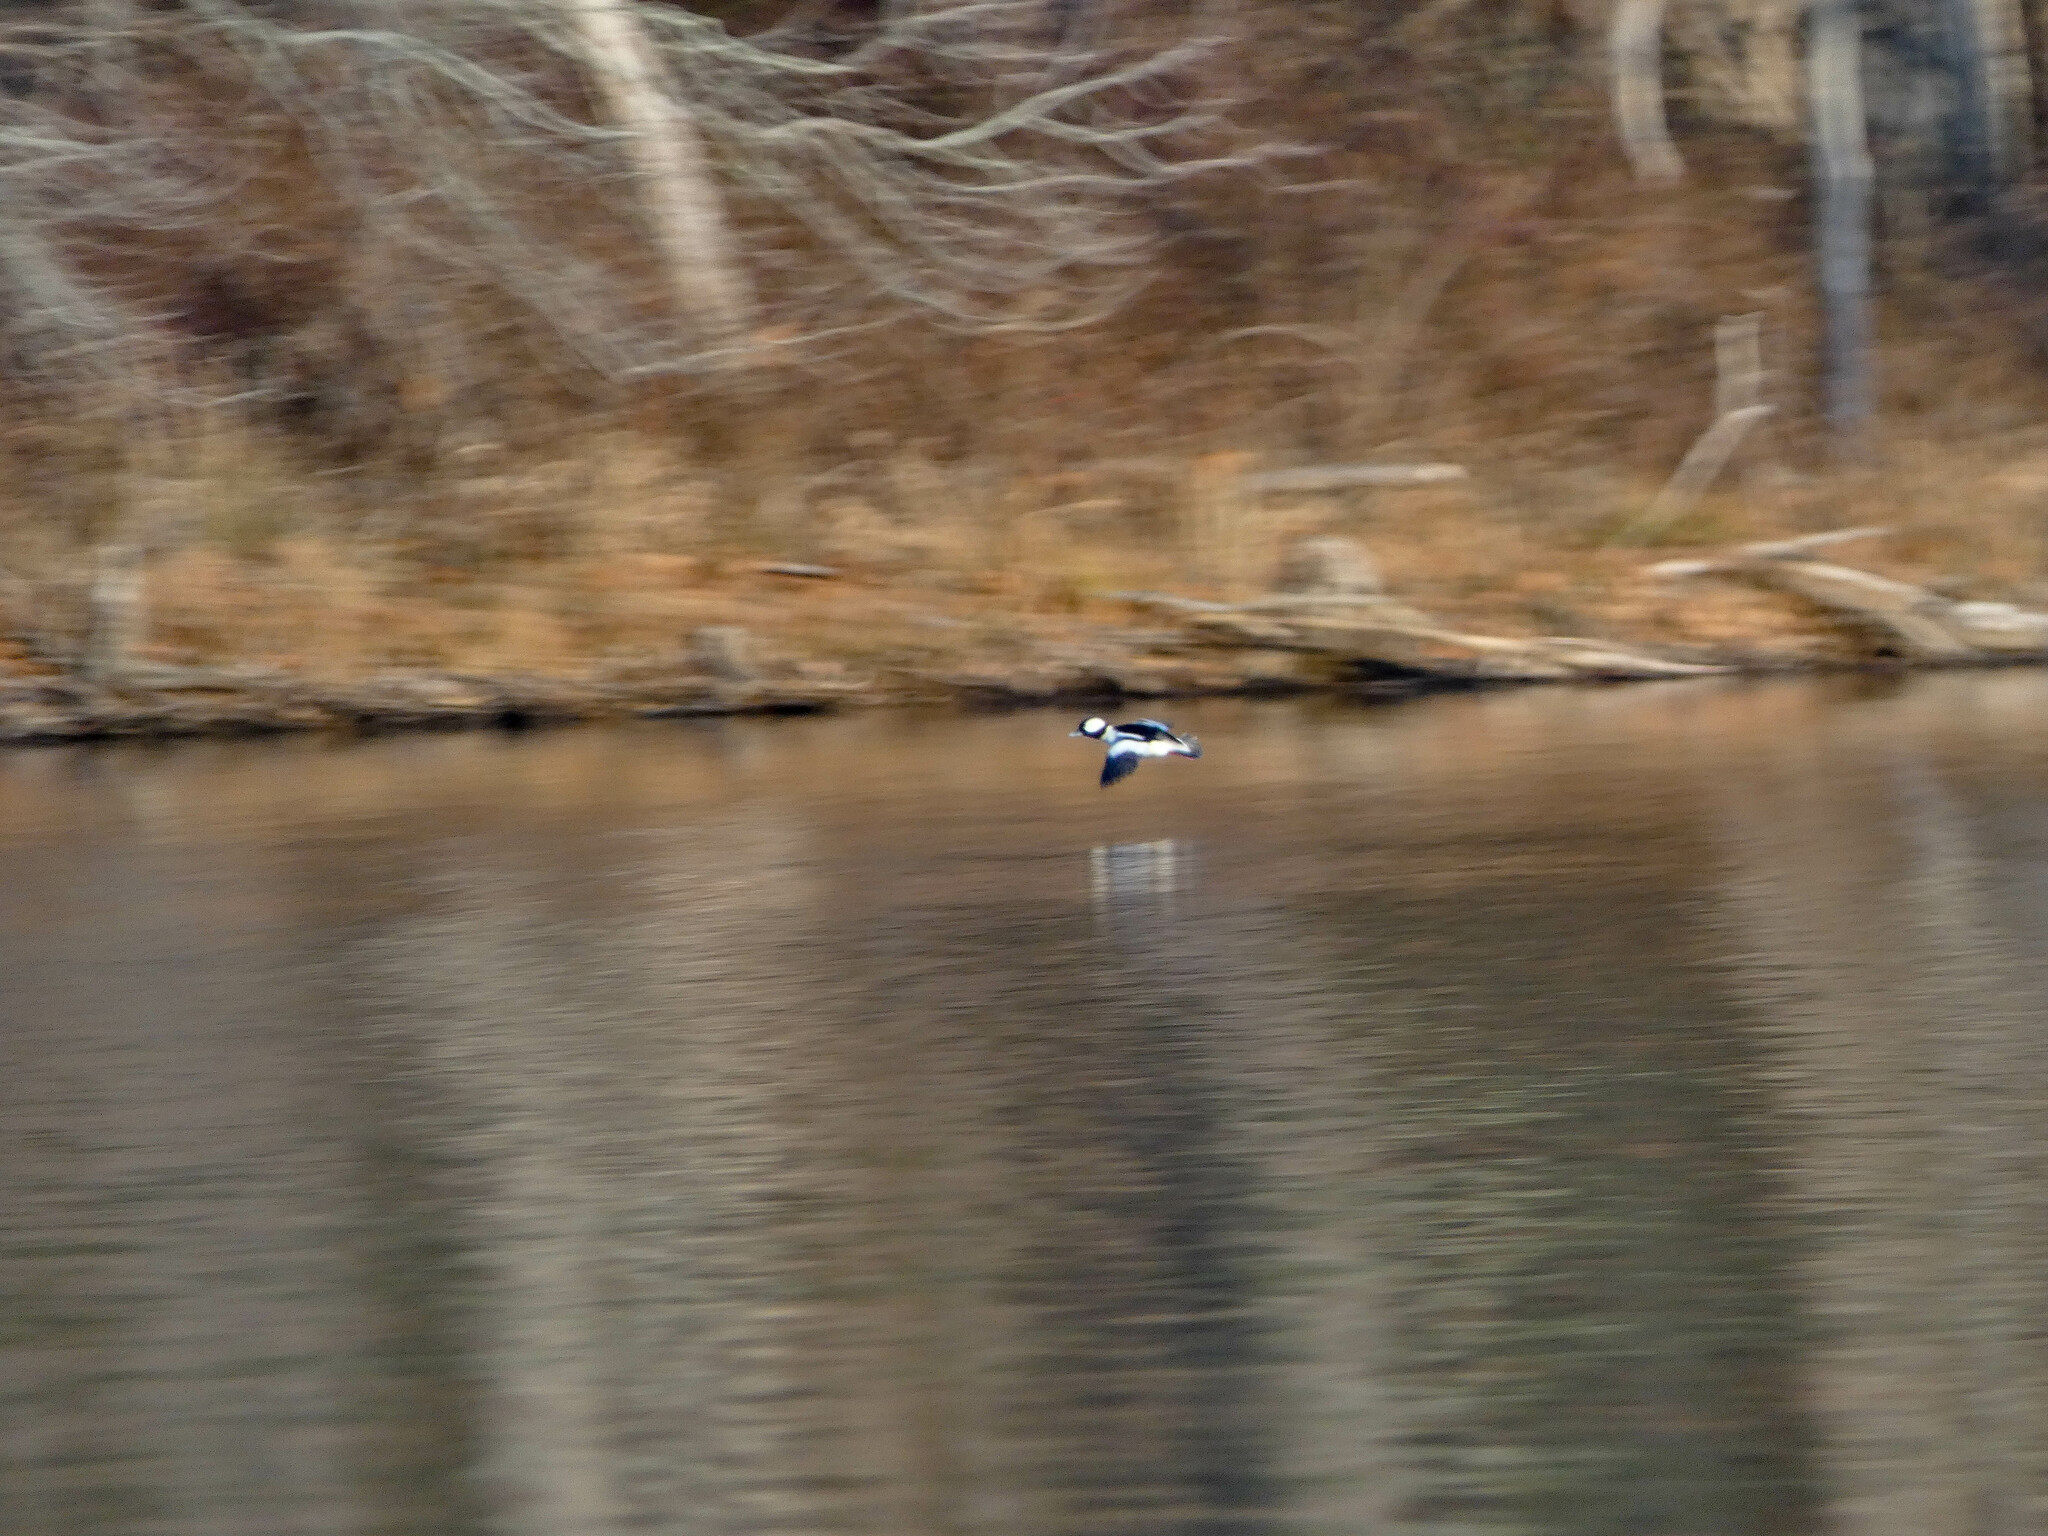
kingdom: Animalia
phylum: Chordata
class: Aves
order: Anseriformes
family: Anatidae
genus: Bucephala
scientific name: Bucephala albeola
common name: Bufflehead
